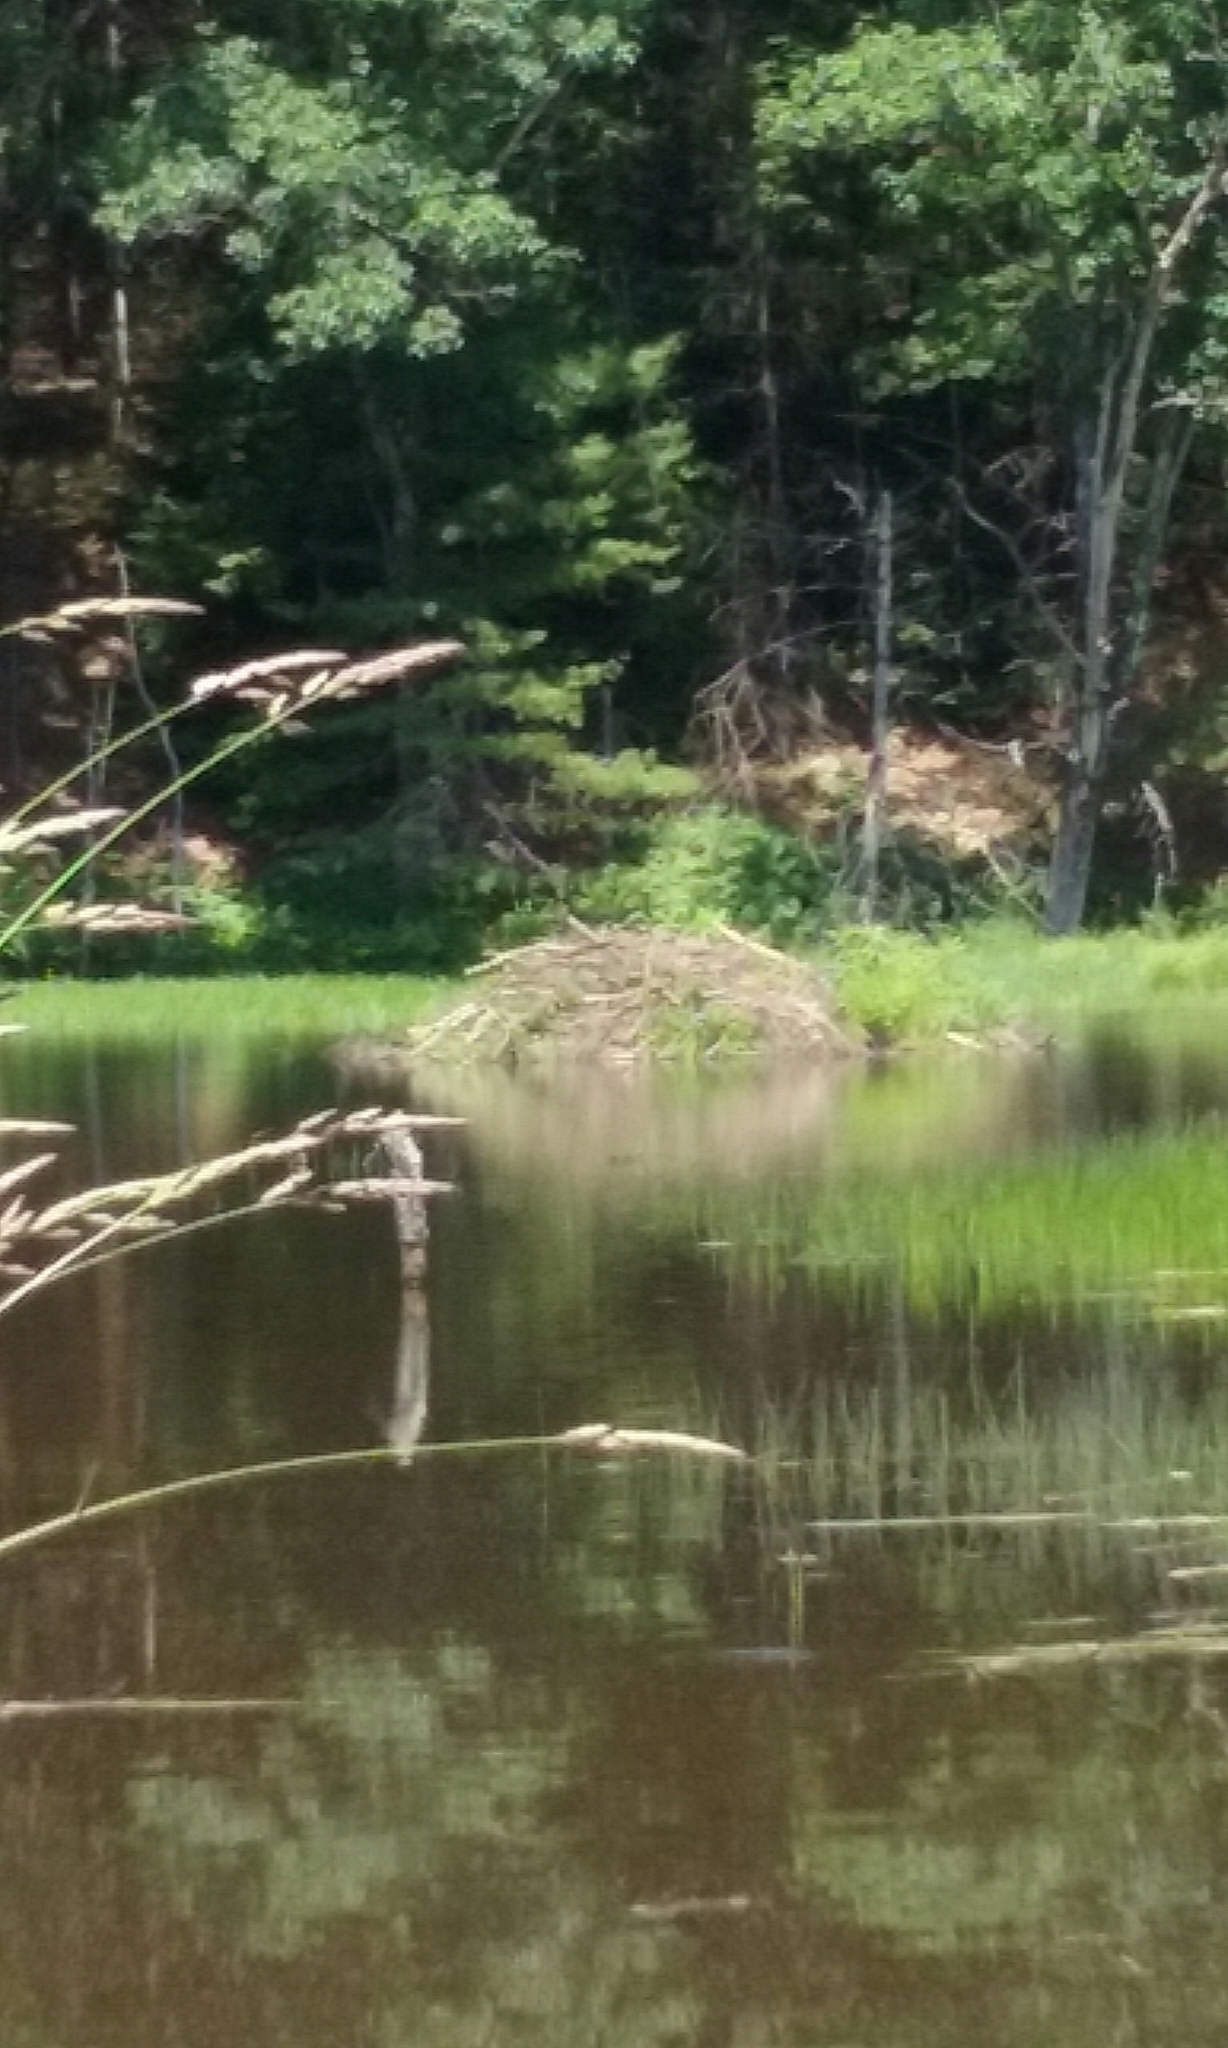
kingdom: Animalia
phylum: Chordata
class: Mammalia
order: Rodentia
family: Castoridae
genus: Castor
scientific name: Castor canadensis
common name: American beaver
